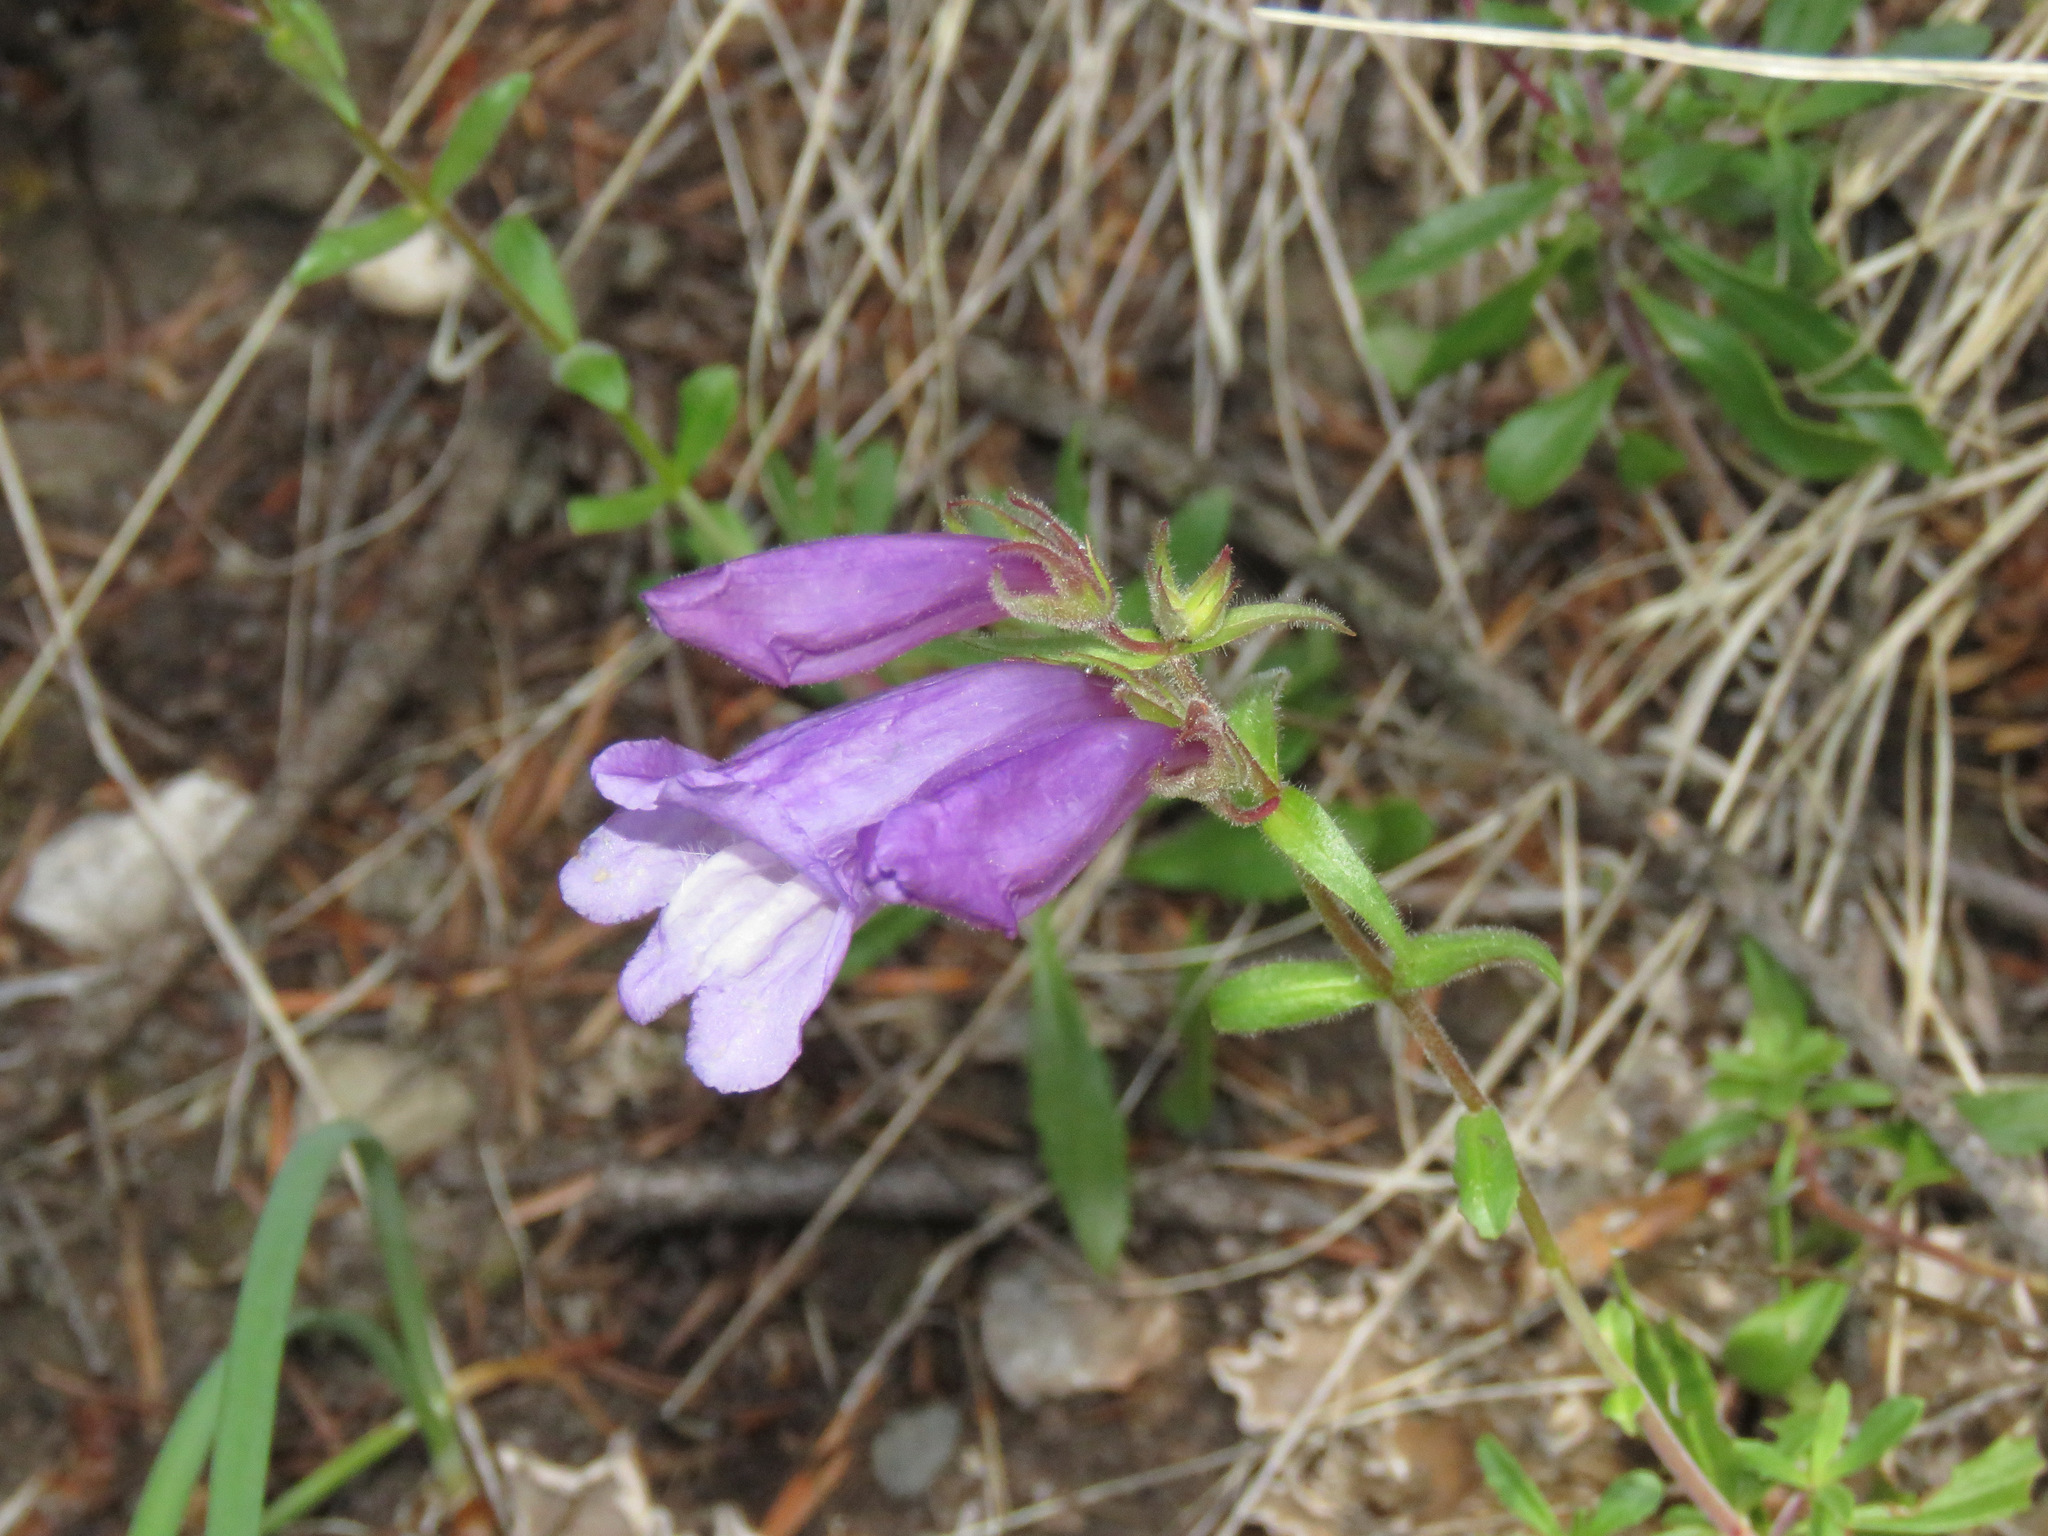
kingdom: Plantae
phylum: Tracheophyta
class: Magnoliopsida
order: Lamiales
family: Plantaginaceae
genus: Penstemon
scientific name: Penstemon fruticosus
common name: Bush penstemon
